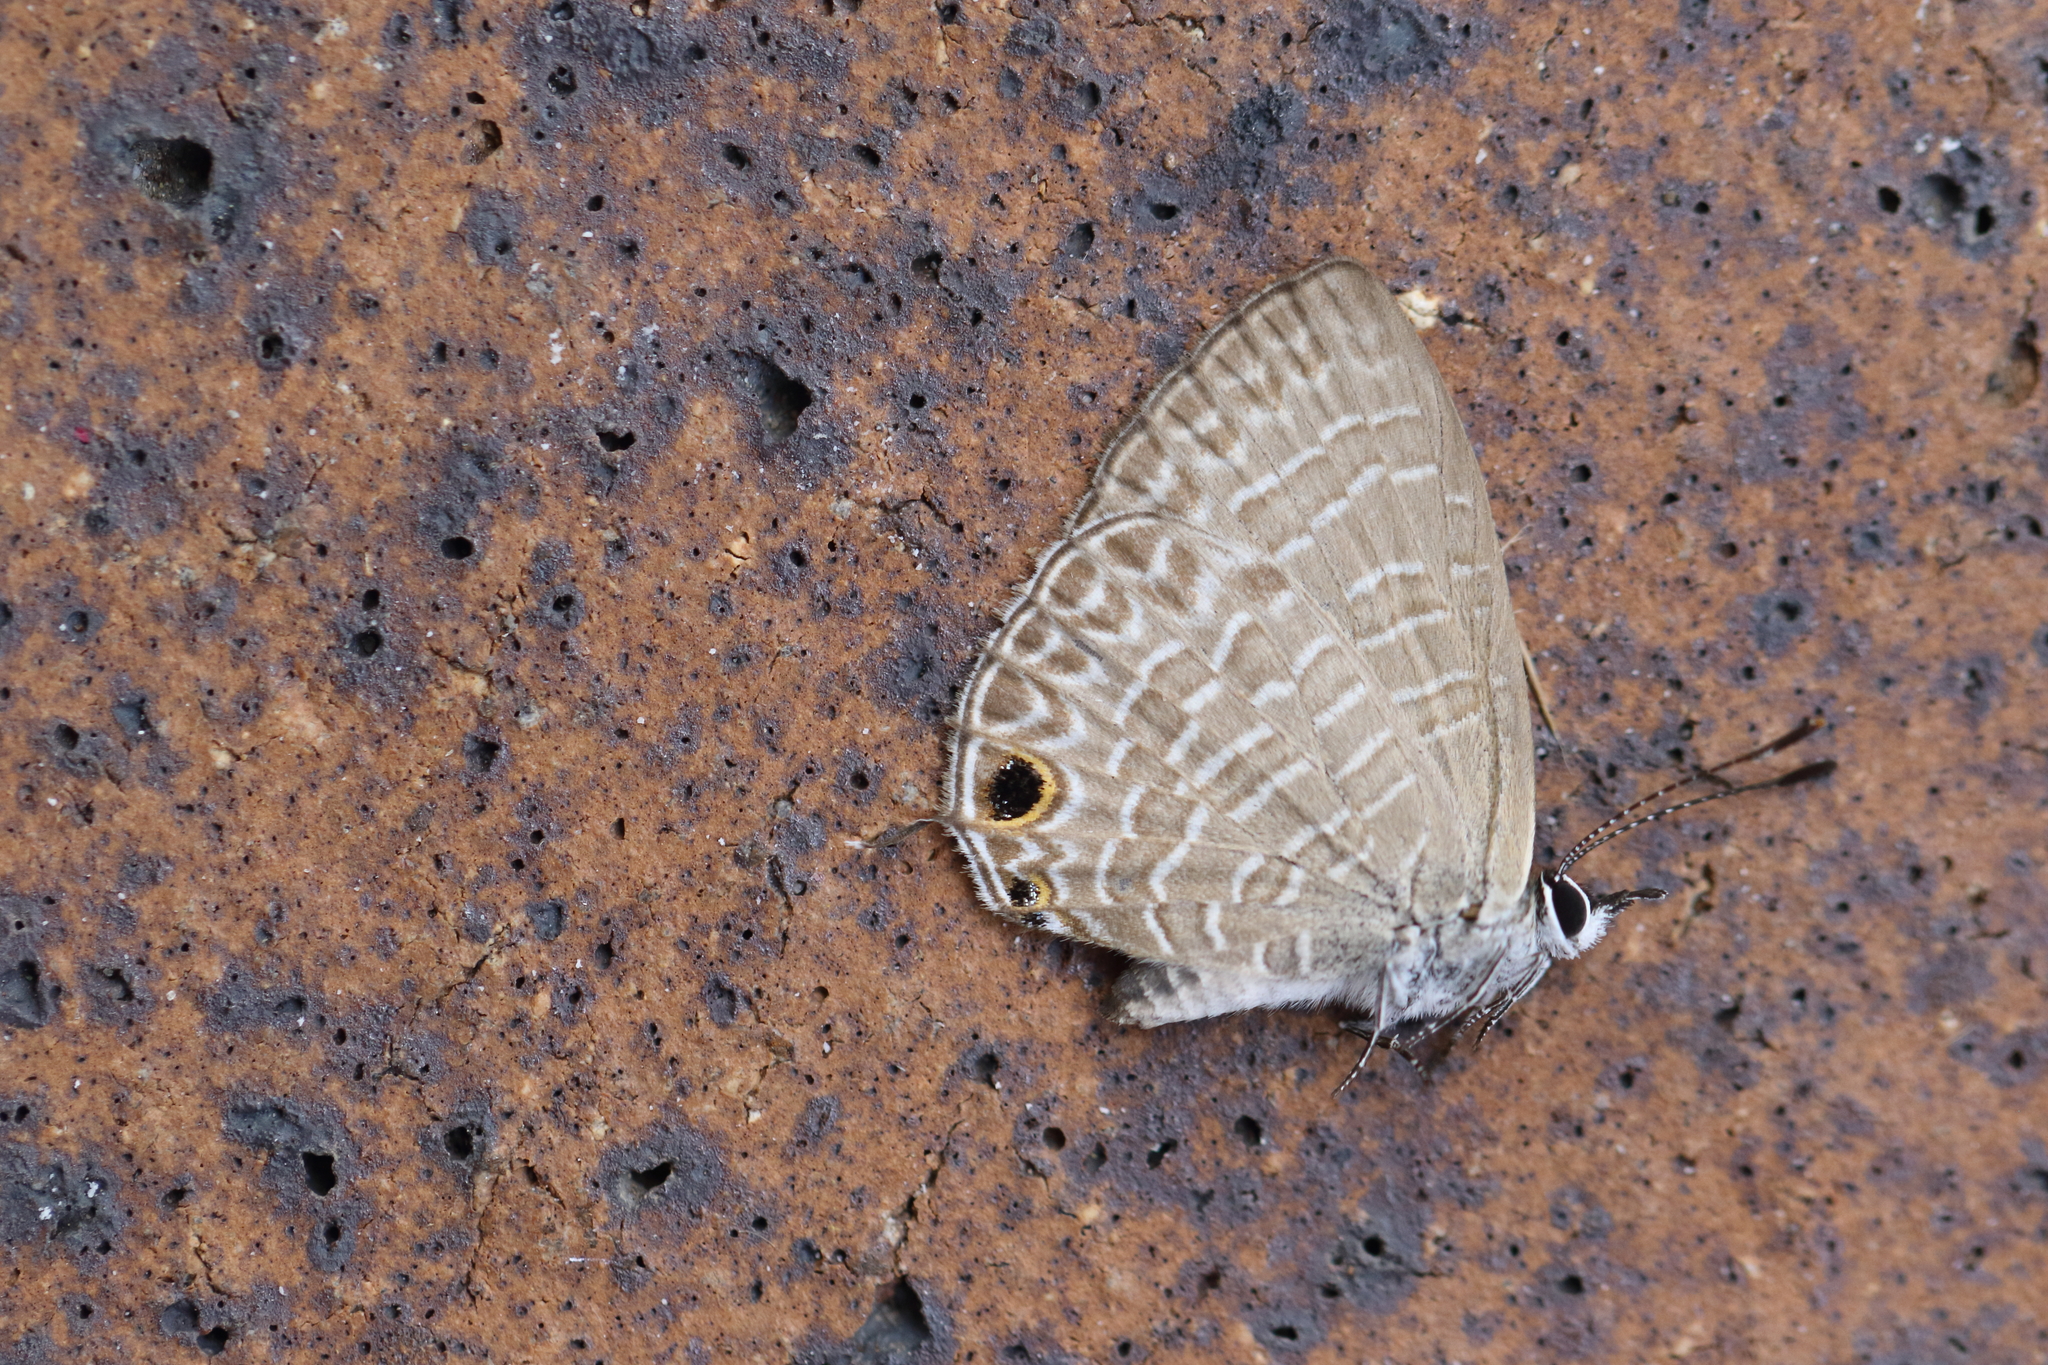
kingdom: Animalia
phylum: Arthropoda
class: Insecta
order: Lepidoptera
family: Lycaenidae
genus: Nacaduba
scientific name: Nacaduba berenice
